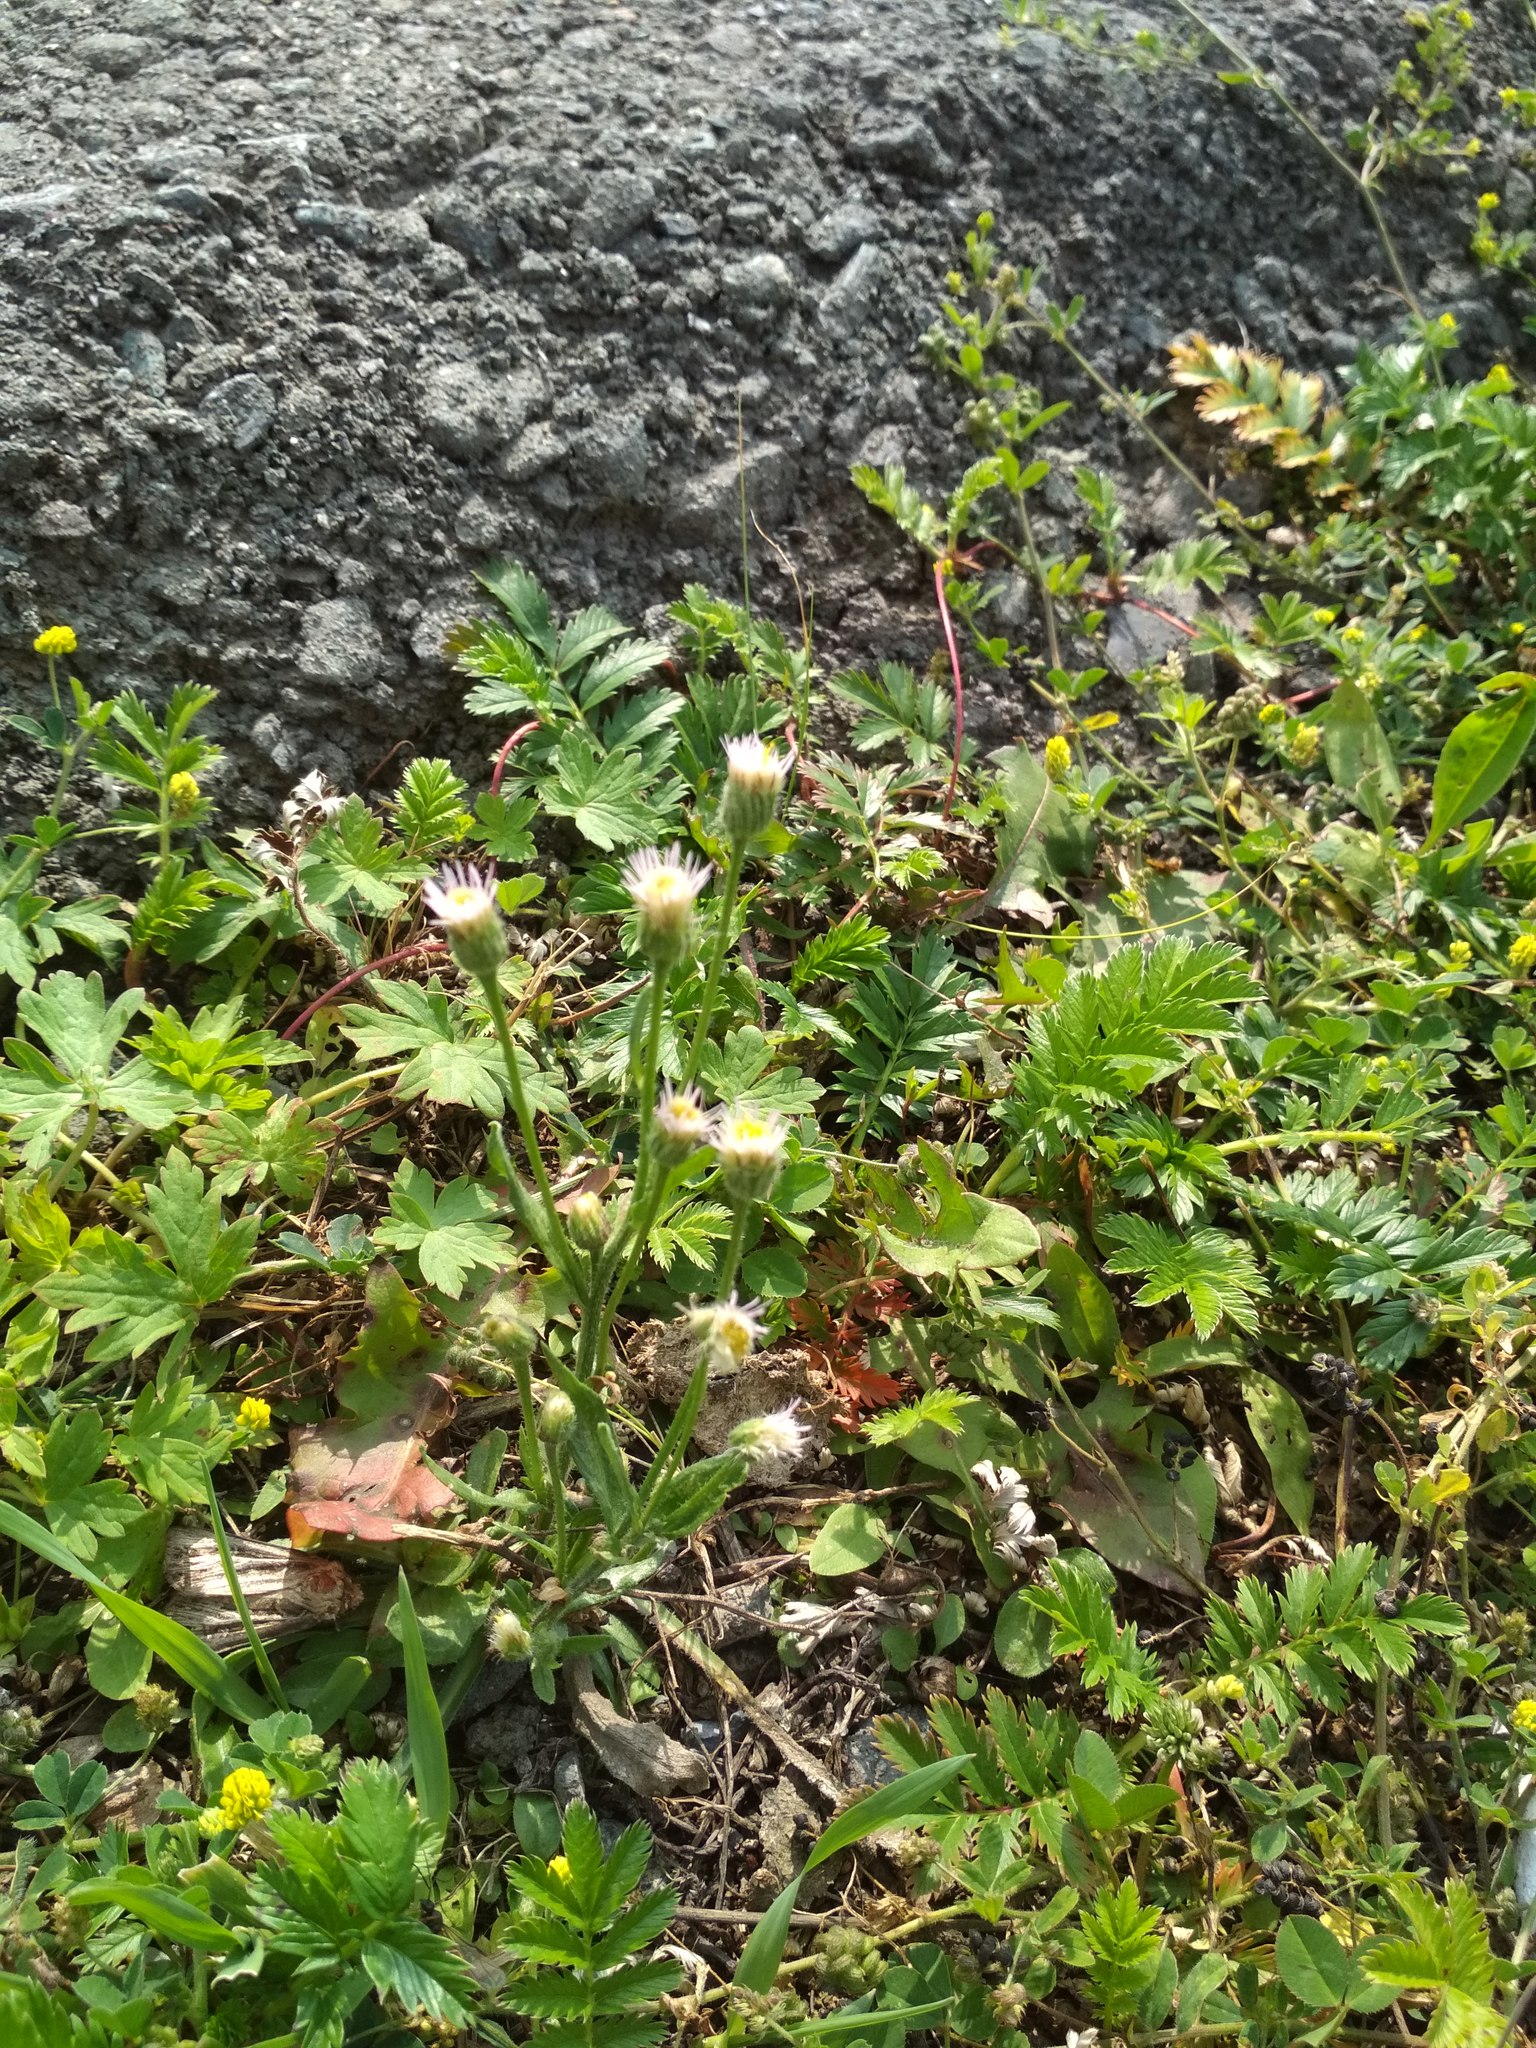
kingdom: Plantae
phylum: Tracheophyta
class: Magnoliopsida
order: Asterales
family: Asteraceae
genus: Erigeron
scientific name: Erigeron acris
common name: Blue fleabane
